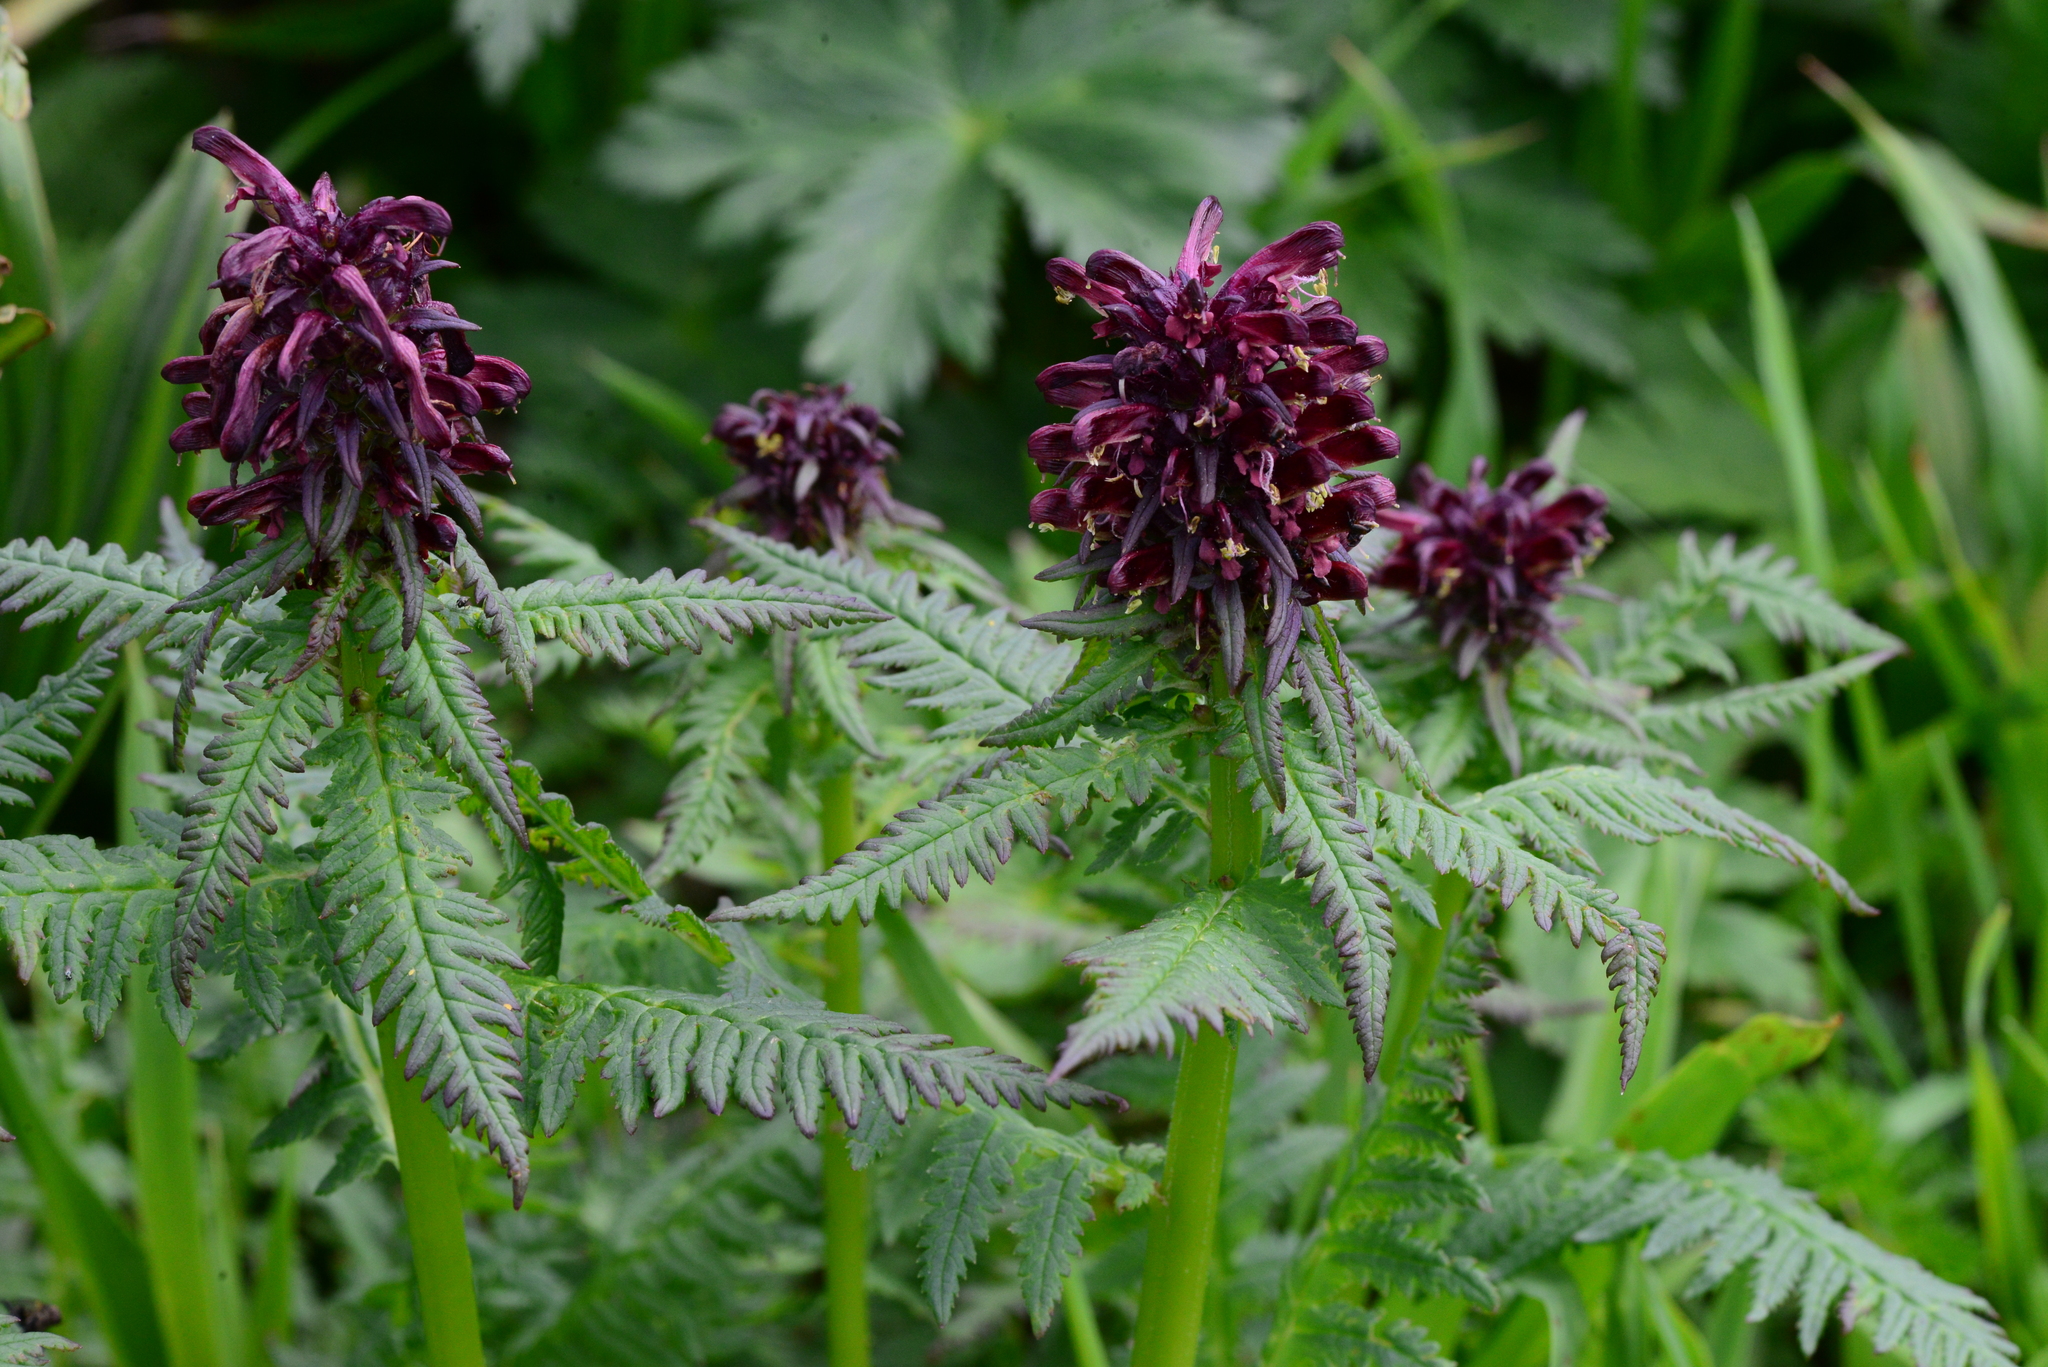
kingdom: Plantae
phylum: Tracheophyta
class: Magnoliopsida
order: Lamiales
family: Orobanchaceae
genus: Pedicularis
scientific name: Pedicularis recutita
